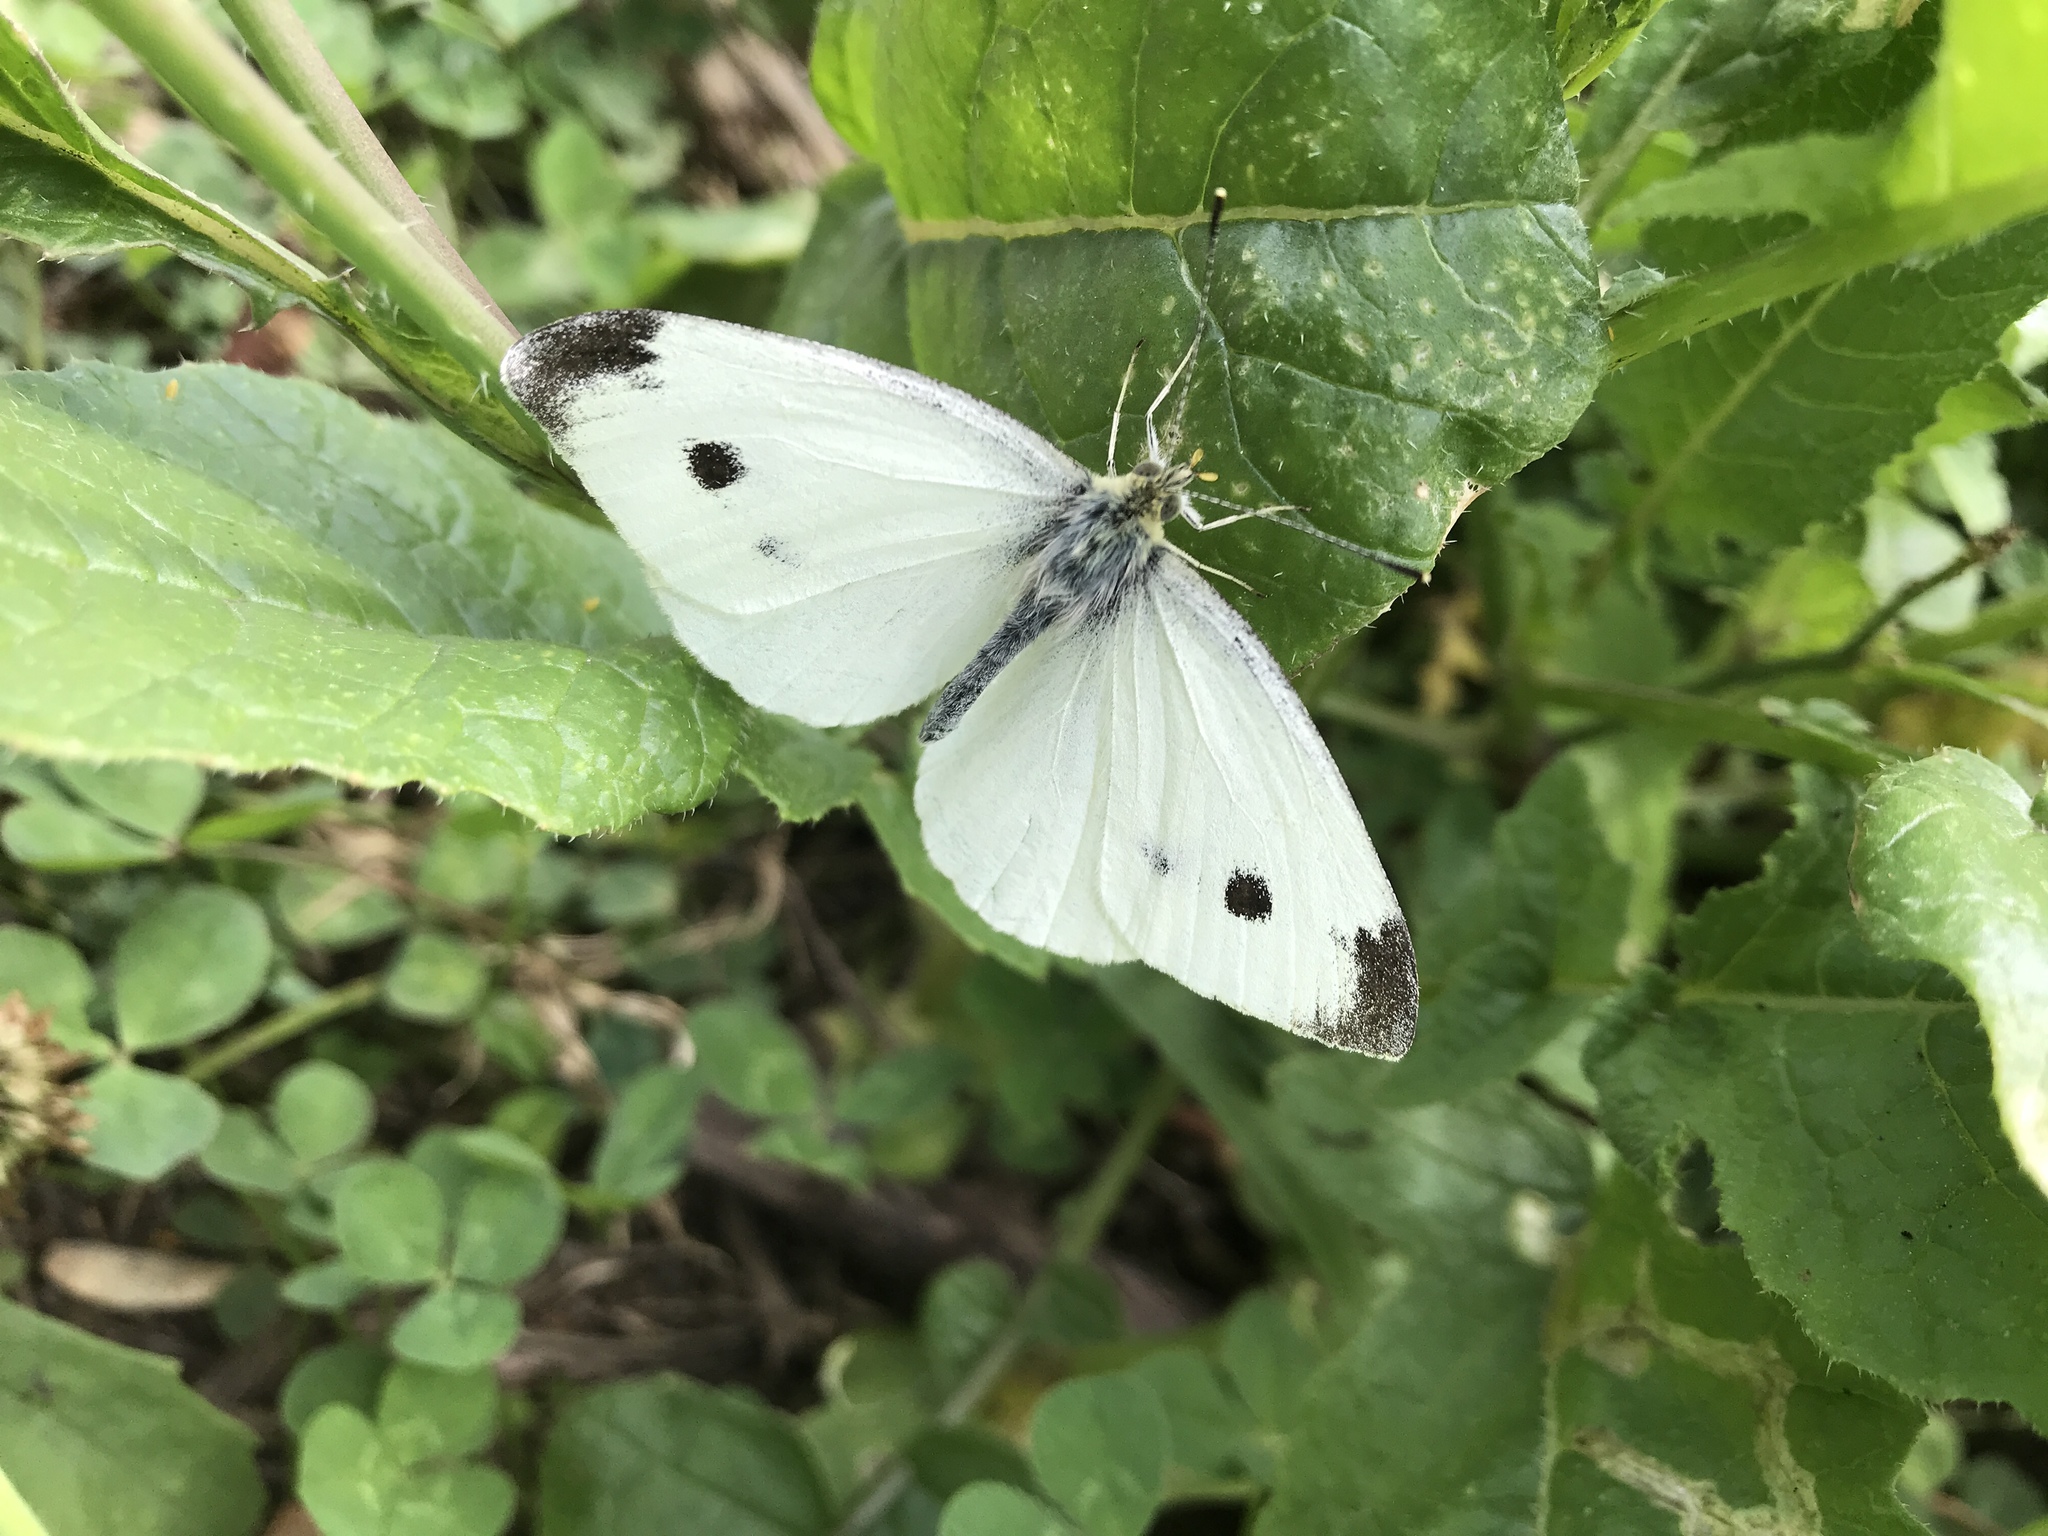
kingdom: Animalia
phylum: Arthropoda
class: Insecta
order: Lepidoptera
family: Pieridae
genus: Pieris
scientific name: Pieris rapae
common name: Small white
